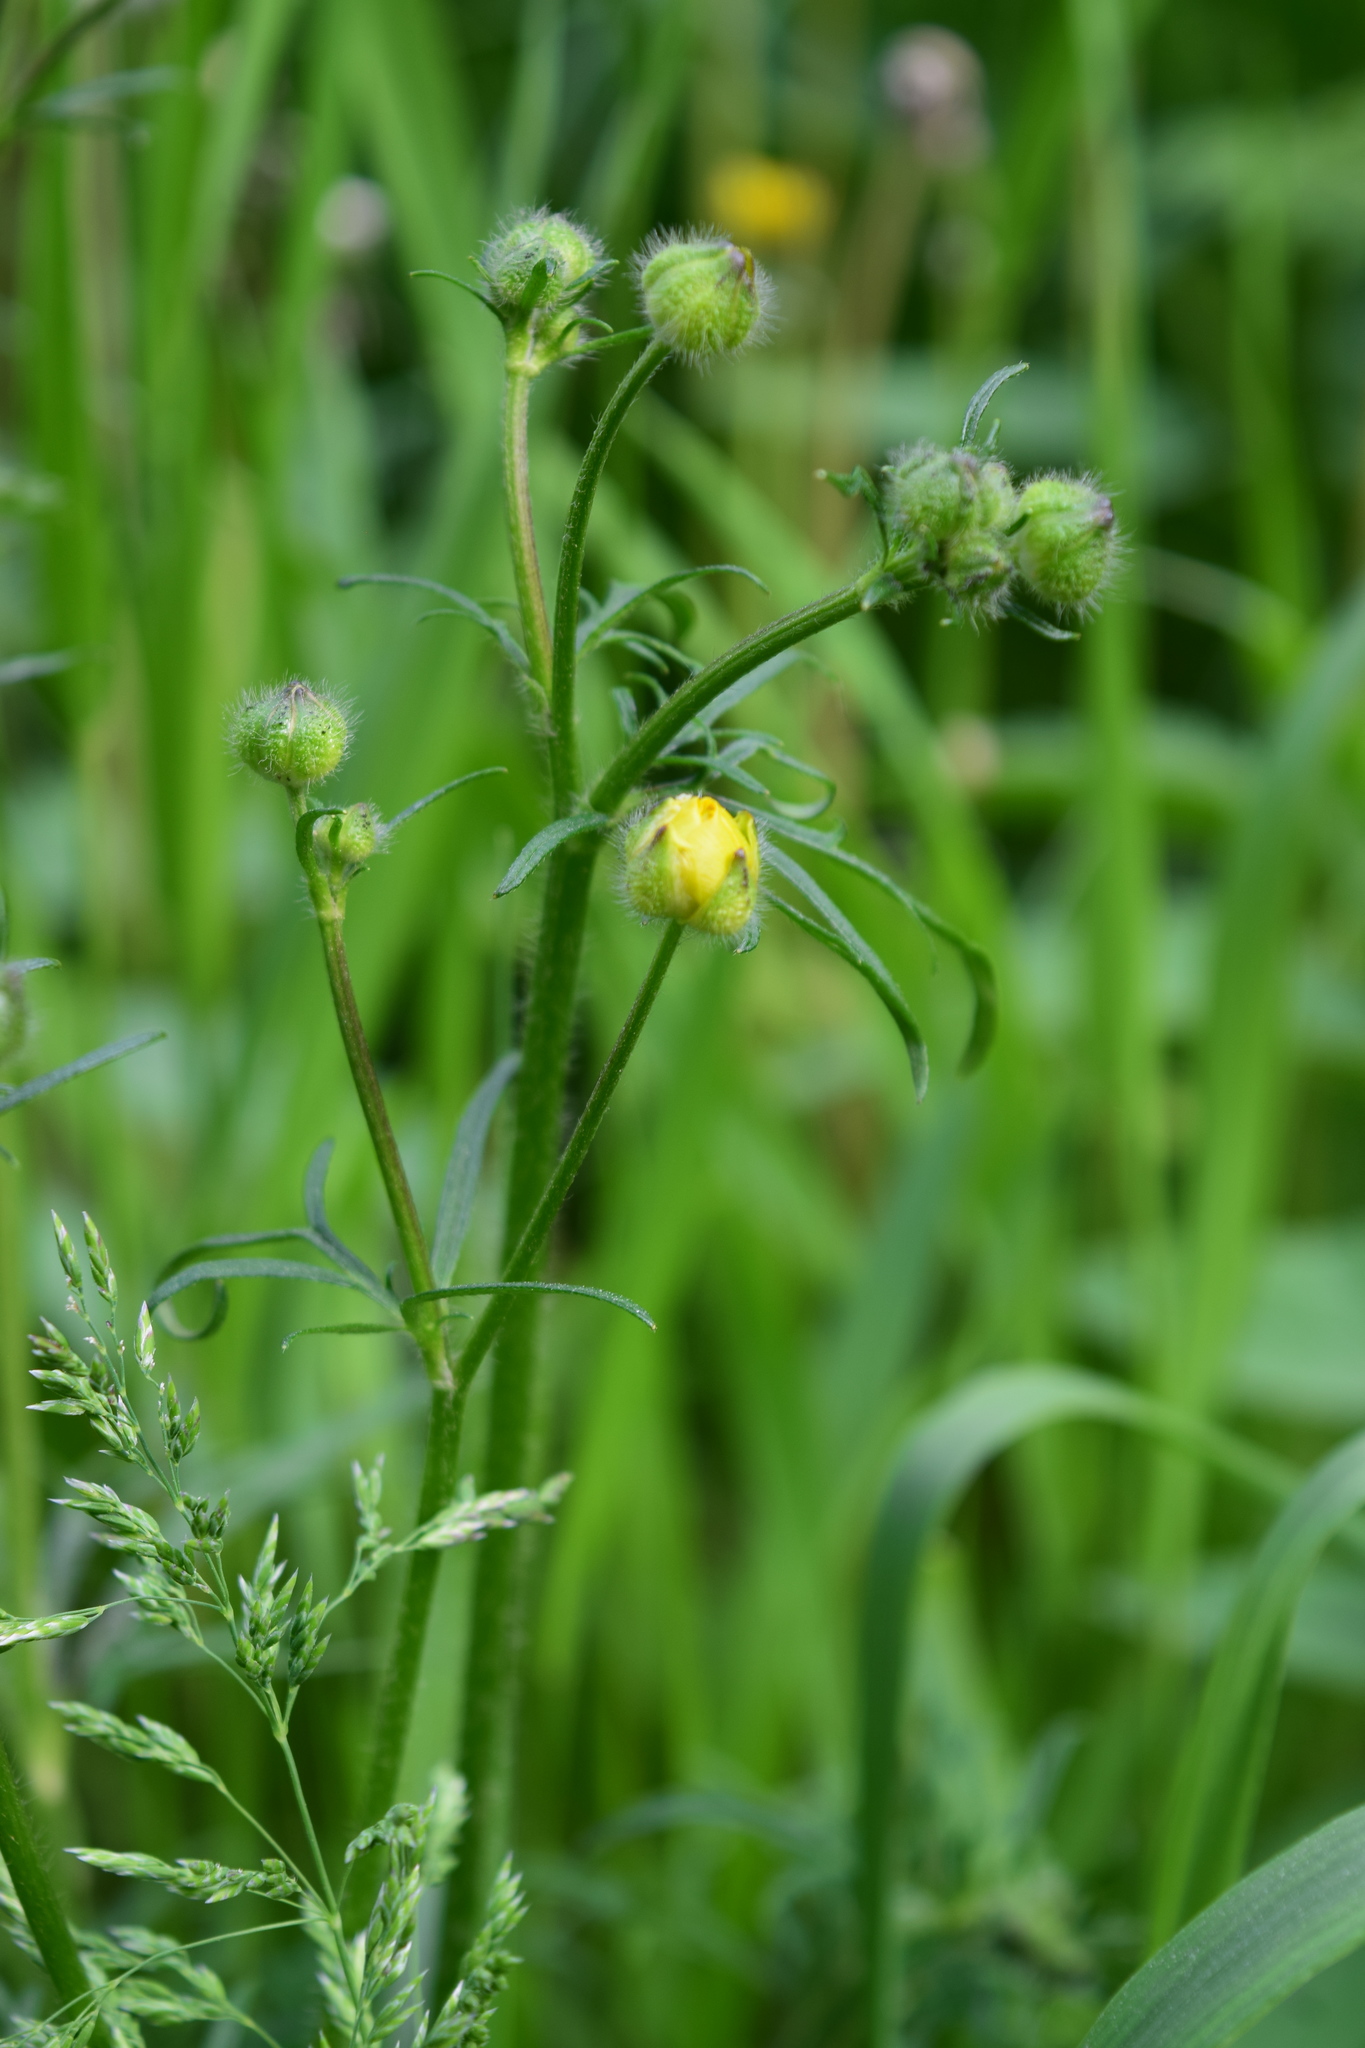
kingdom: Plantae
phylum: Tracheophyta
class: Magnoliopsida
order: Ranunculales
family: Ranunculaceae
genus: Ranunculus
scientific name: Ranunculus polyanthemos
